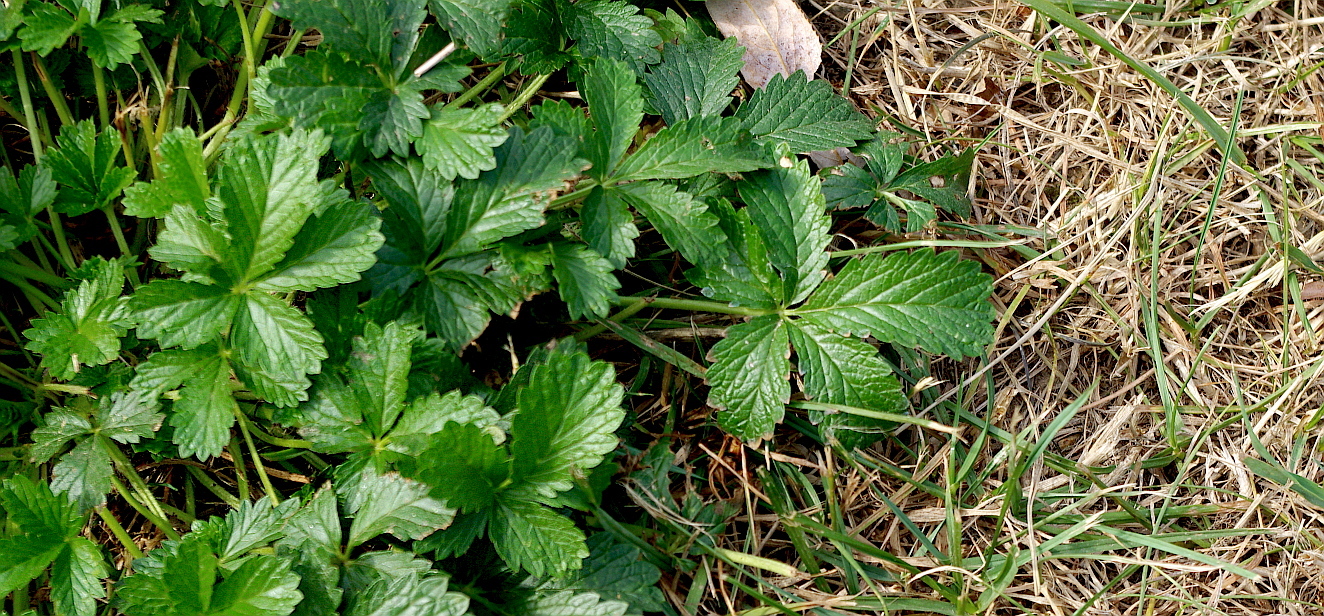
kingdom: Plantae
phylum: Tracheophyta
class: Magnoliopsida
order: Rosales
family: Rosaceae
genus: Potentilla
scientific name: Potentilla intermedia
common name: Downy cinquefoil
